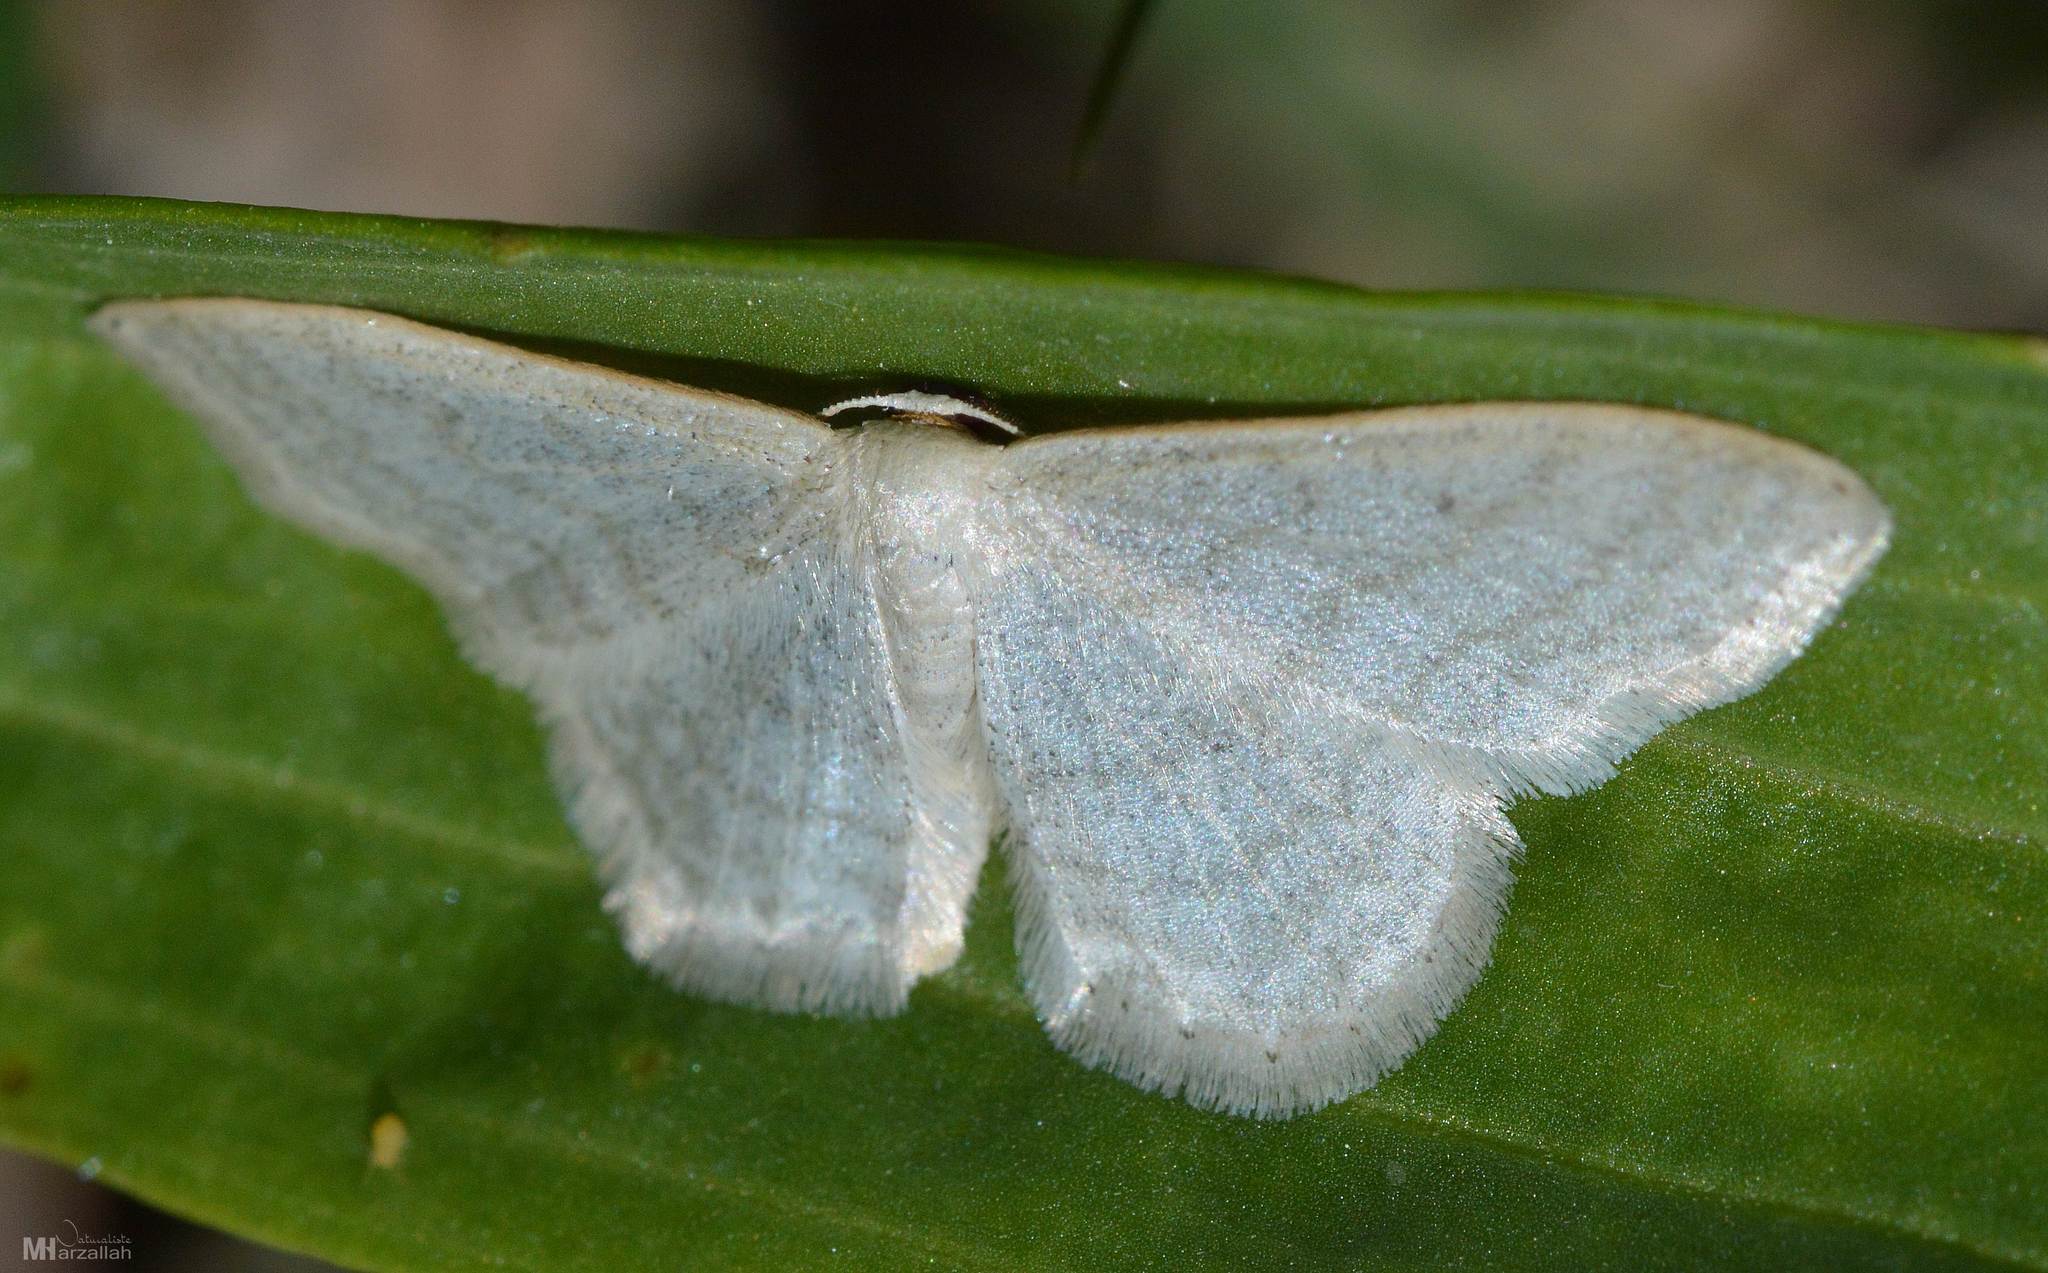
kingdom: Animalia
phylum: Arthropoda
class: Insecta
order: Lepidoptera
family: Geometridae
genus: Idaea
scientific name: Idaea subsericeata
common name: Satin wave
